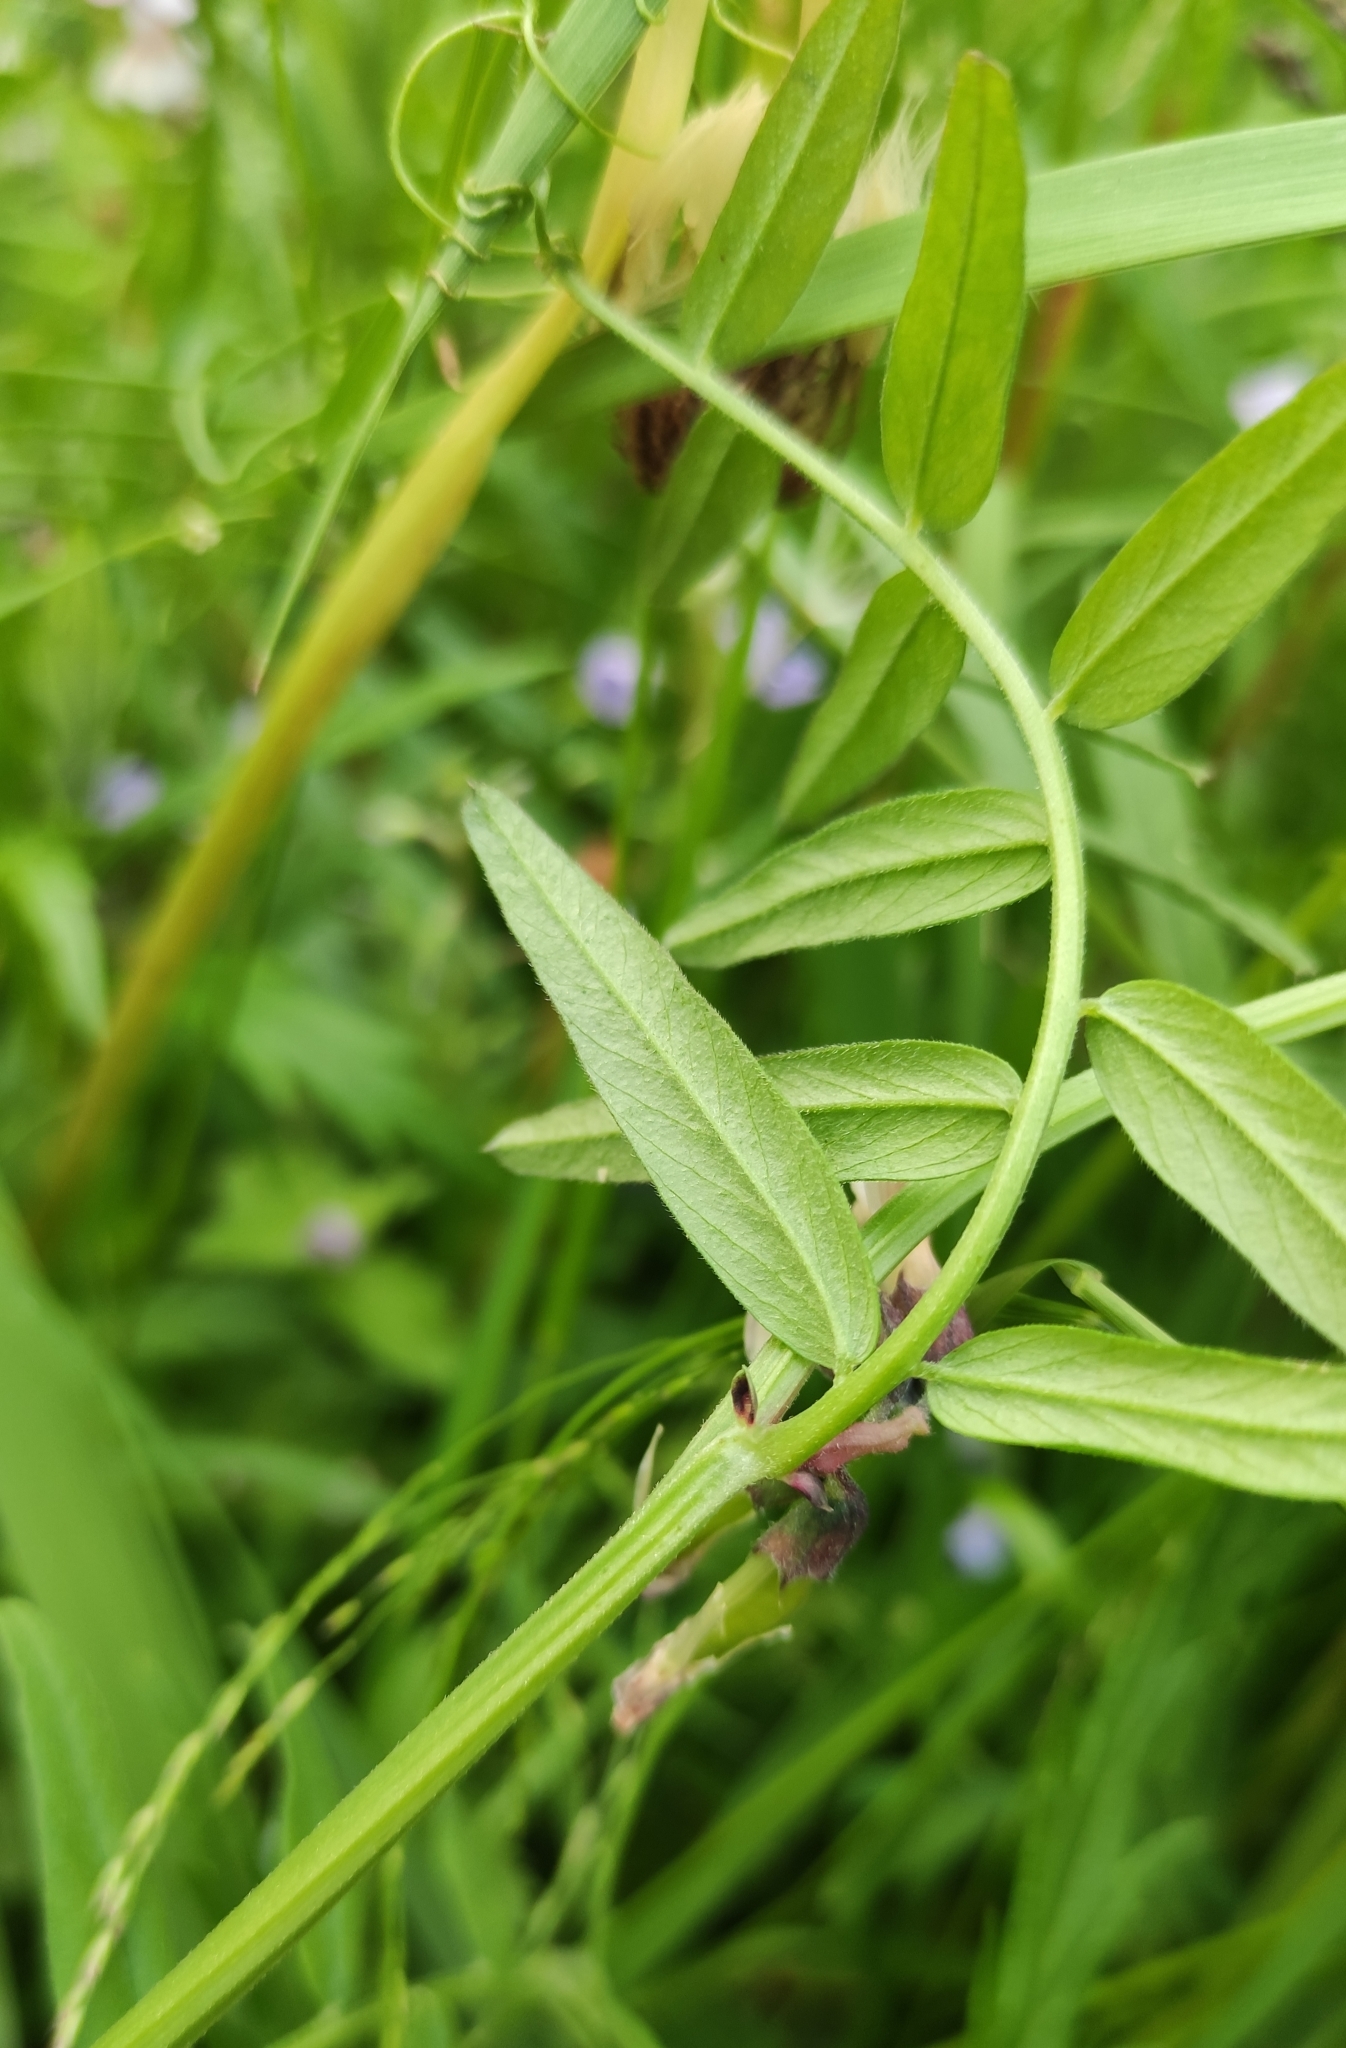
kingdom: Plantae
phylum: Tracheophyta
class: Magnoliopsida
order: Fabales
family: Fabaceae
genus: Vicia
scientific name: Vicia sepium
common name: Bush vetch
